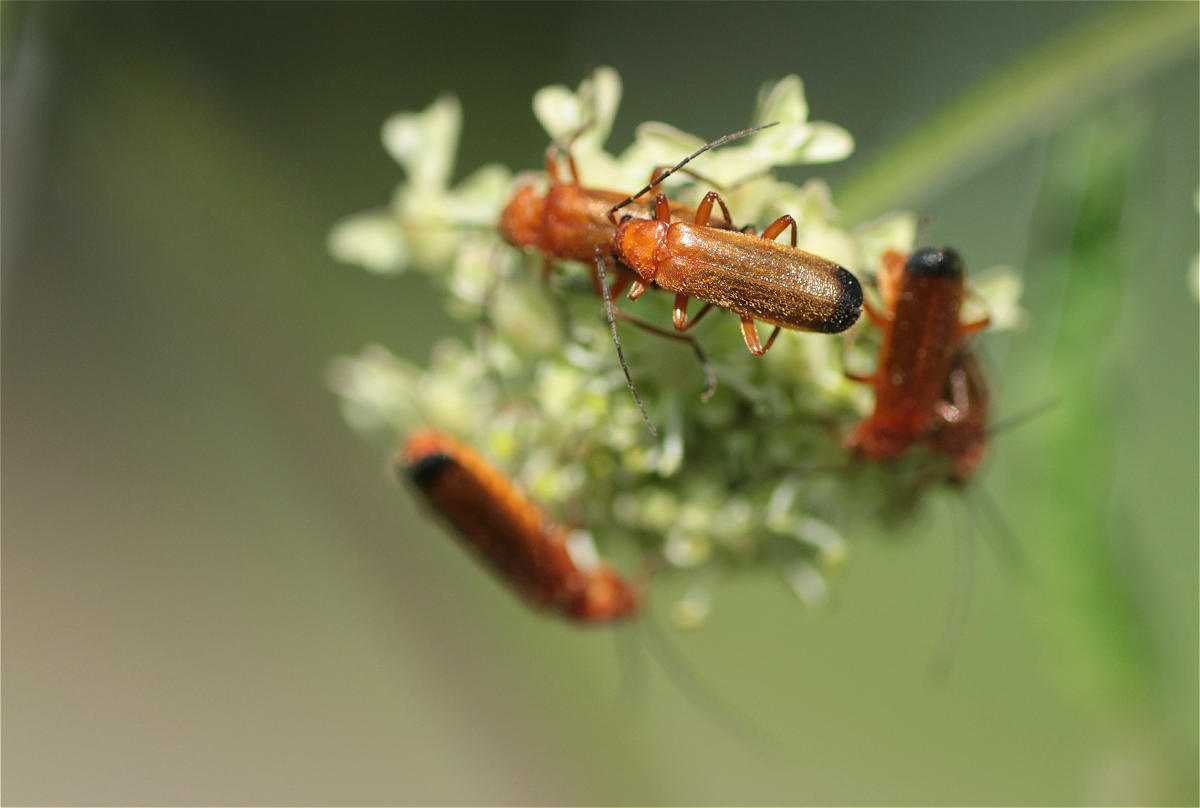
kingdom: Animalia
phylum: Arthropoda
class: Insecta
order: Coleoptera
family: Cantharidae
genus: Rhagonycha
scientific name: Rhagonycha fulva
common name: Common red soldier beetle
